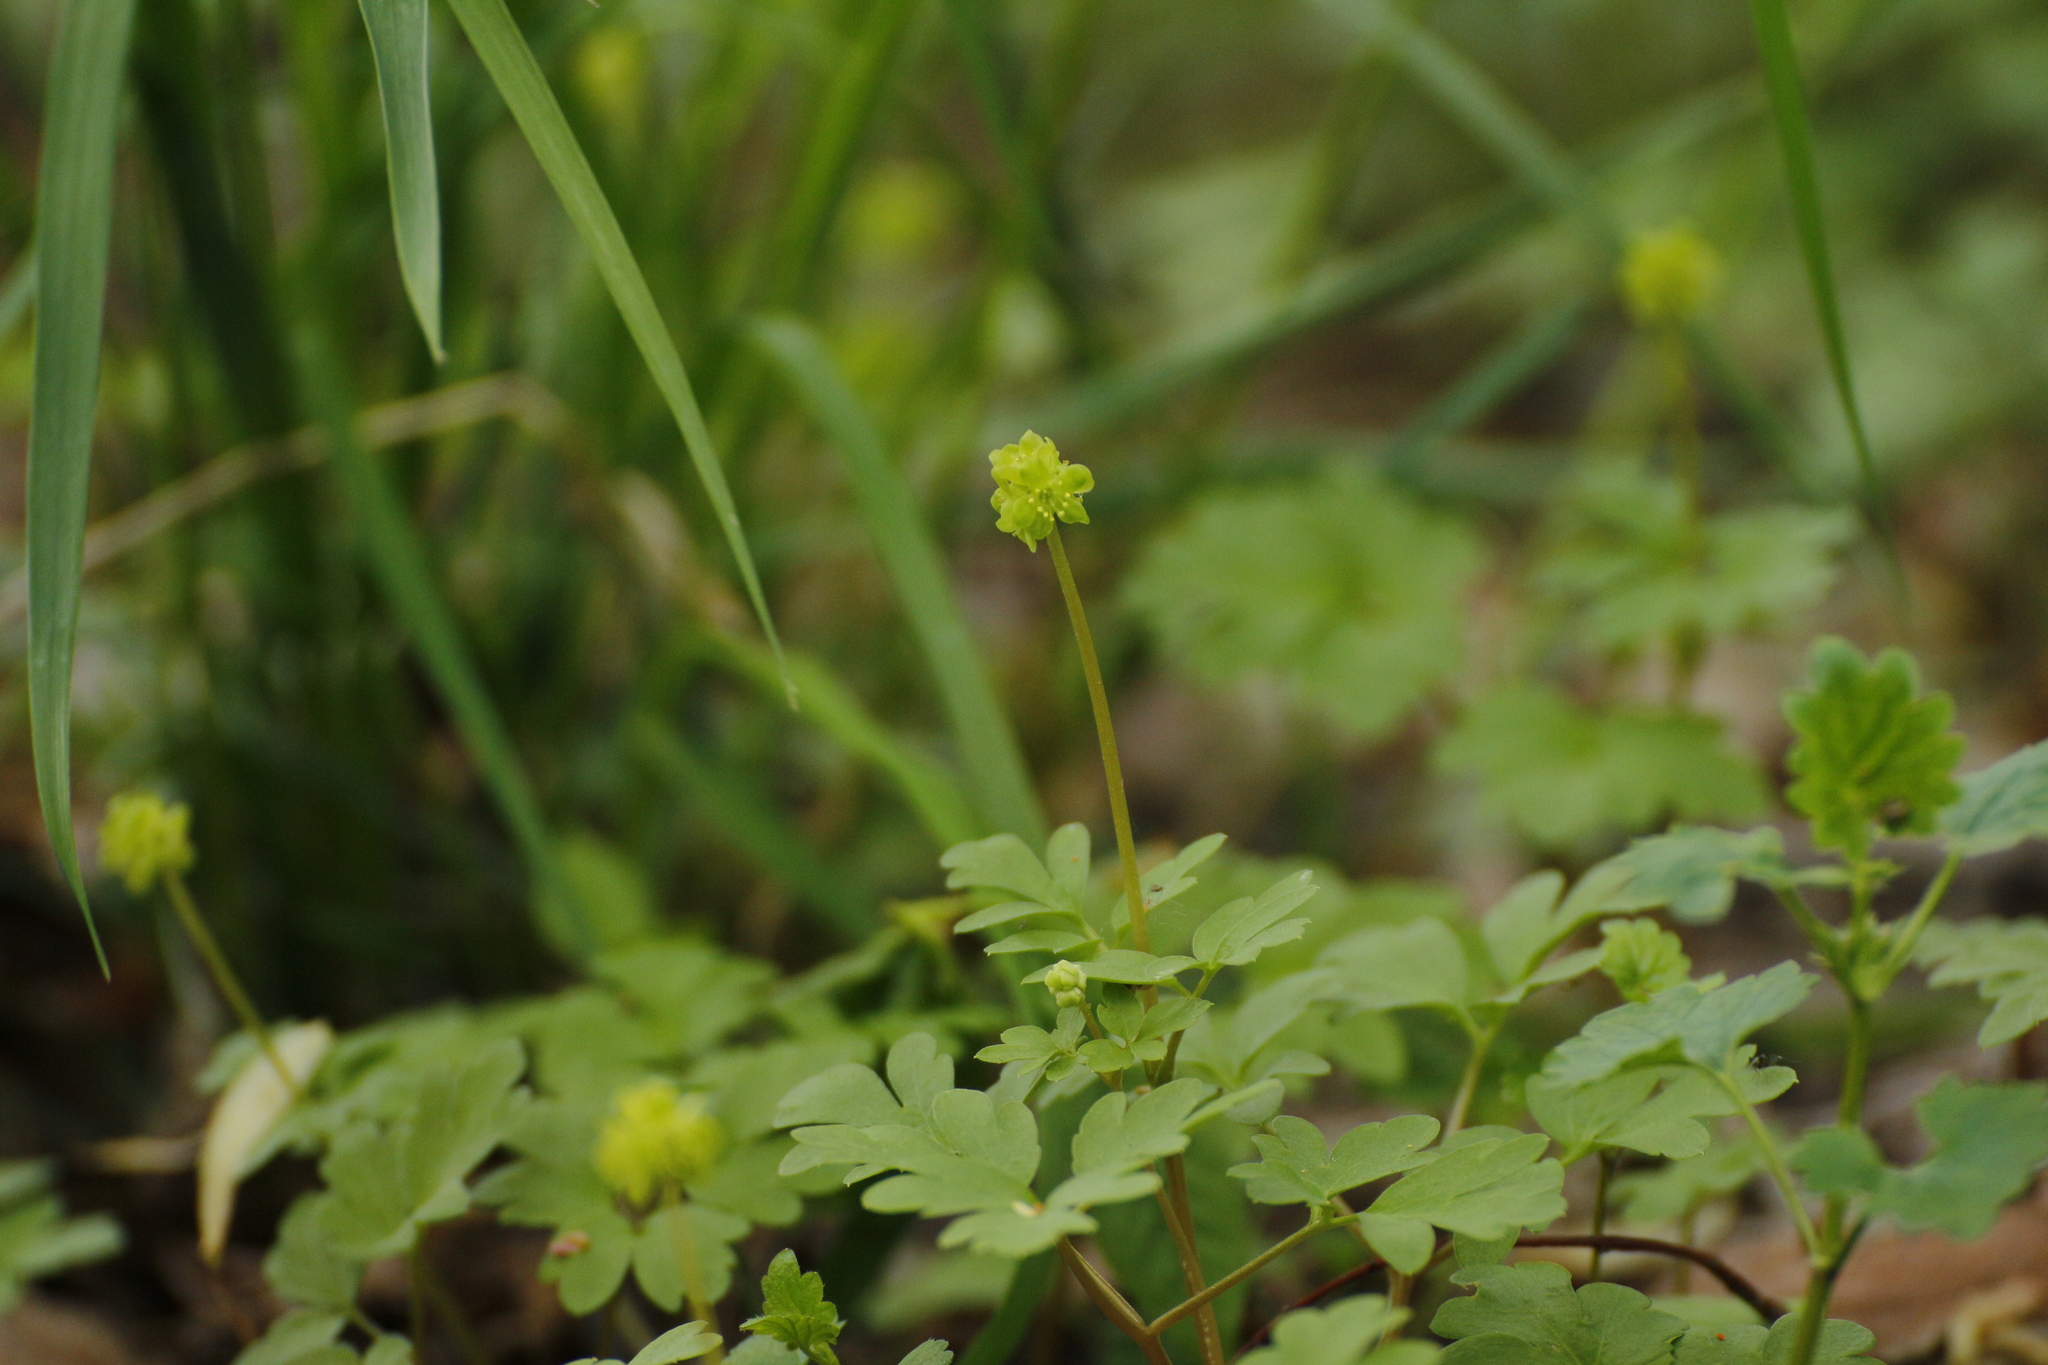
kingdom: Plantae
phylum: Tracheophyta
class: Magnoliopsida
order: Dipsacales
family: Viburnaceae
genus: Adoxa
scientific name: Adoxa moschatellina
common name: Moschatel
